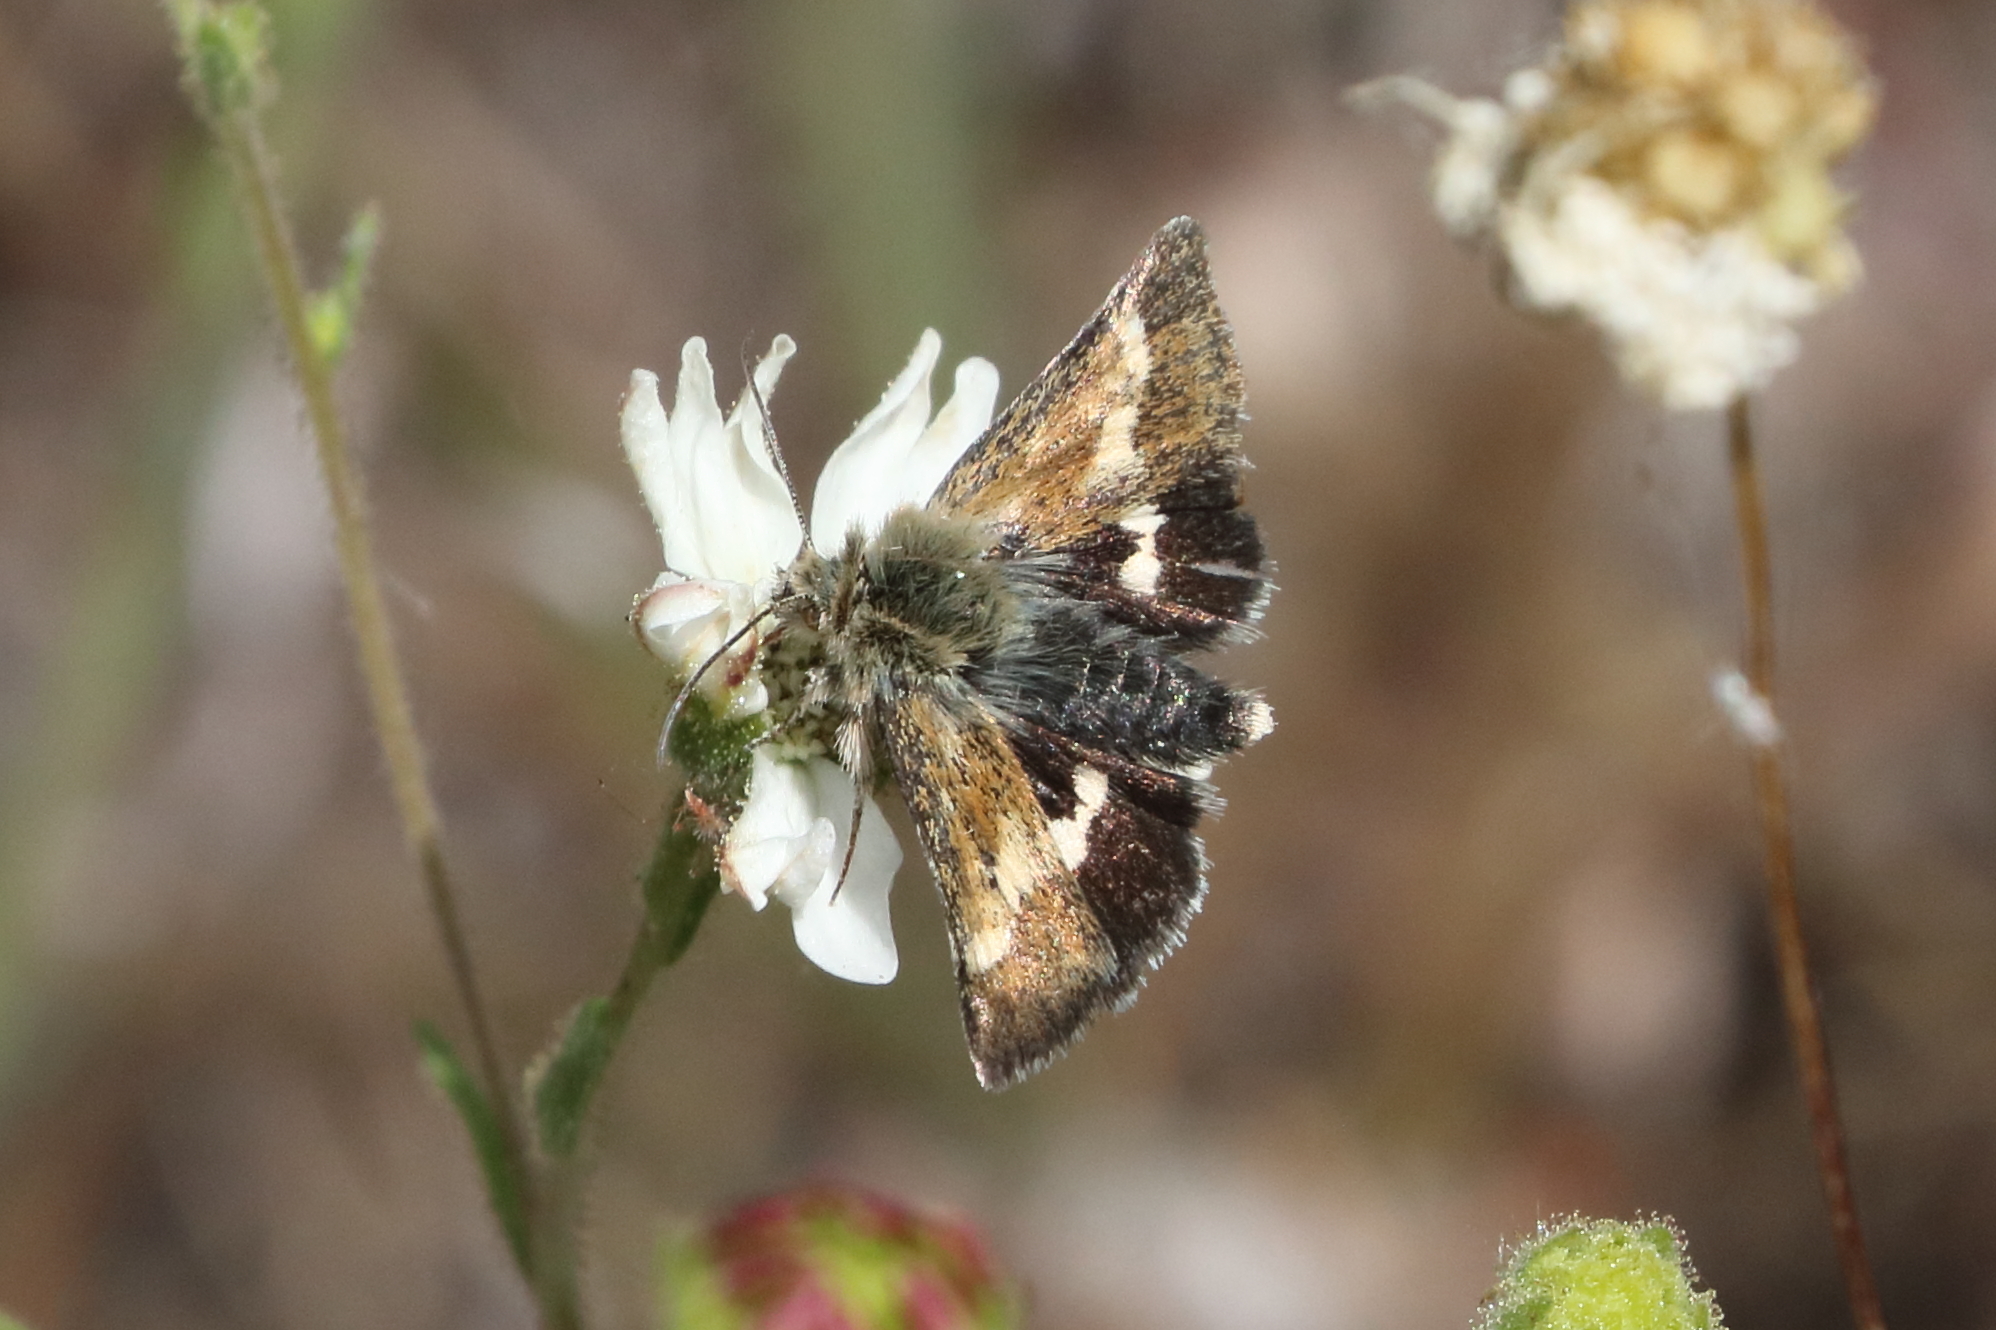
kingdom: Animalia
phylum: Arthropoda
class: Insecta
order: Lepidoptera
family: Noctuidae
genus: Heliothodes
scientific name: Heliothodes diminutiva
